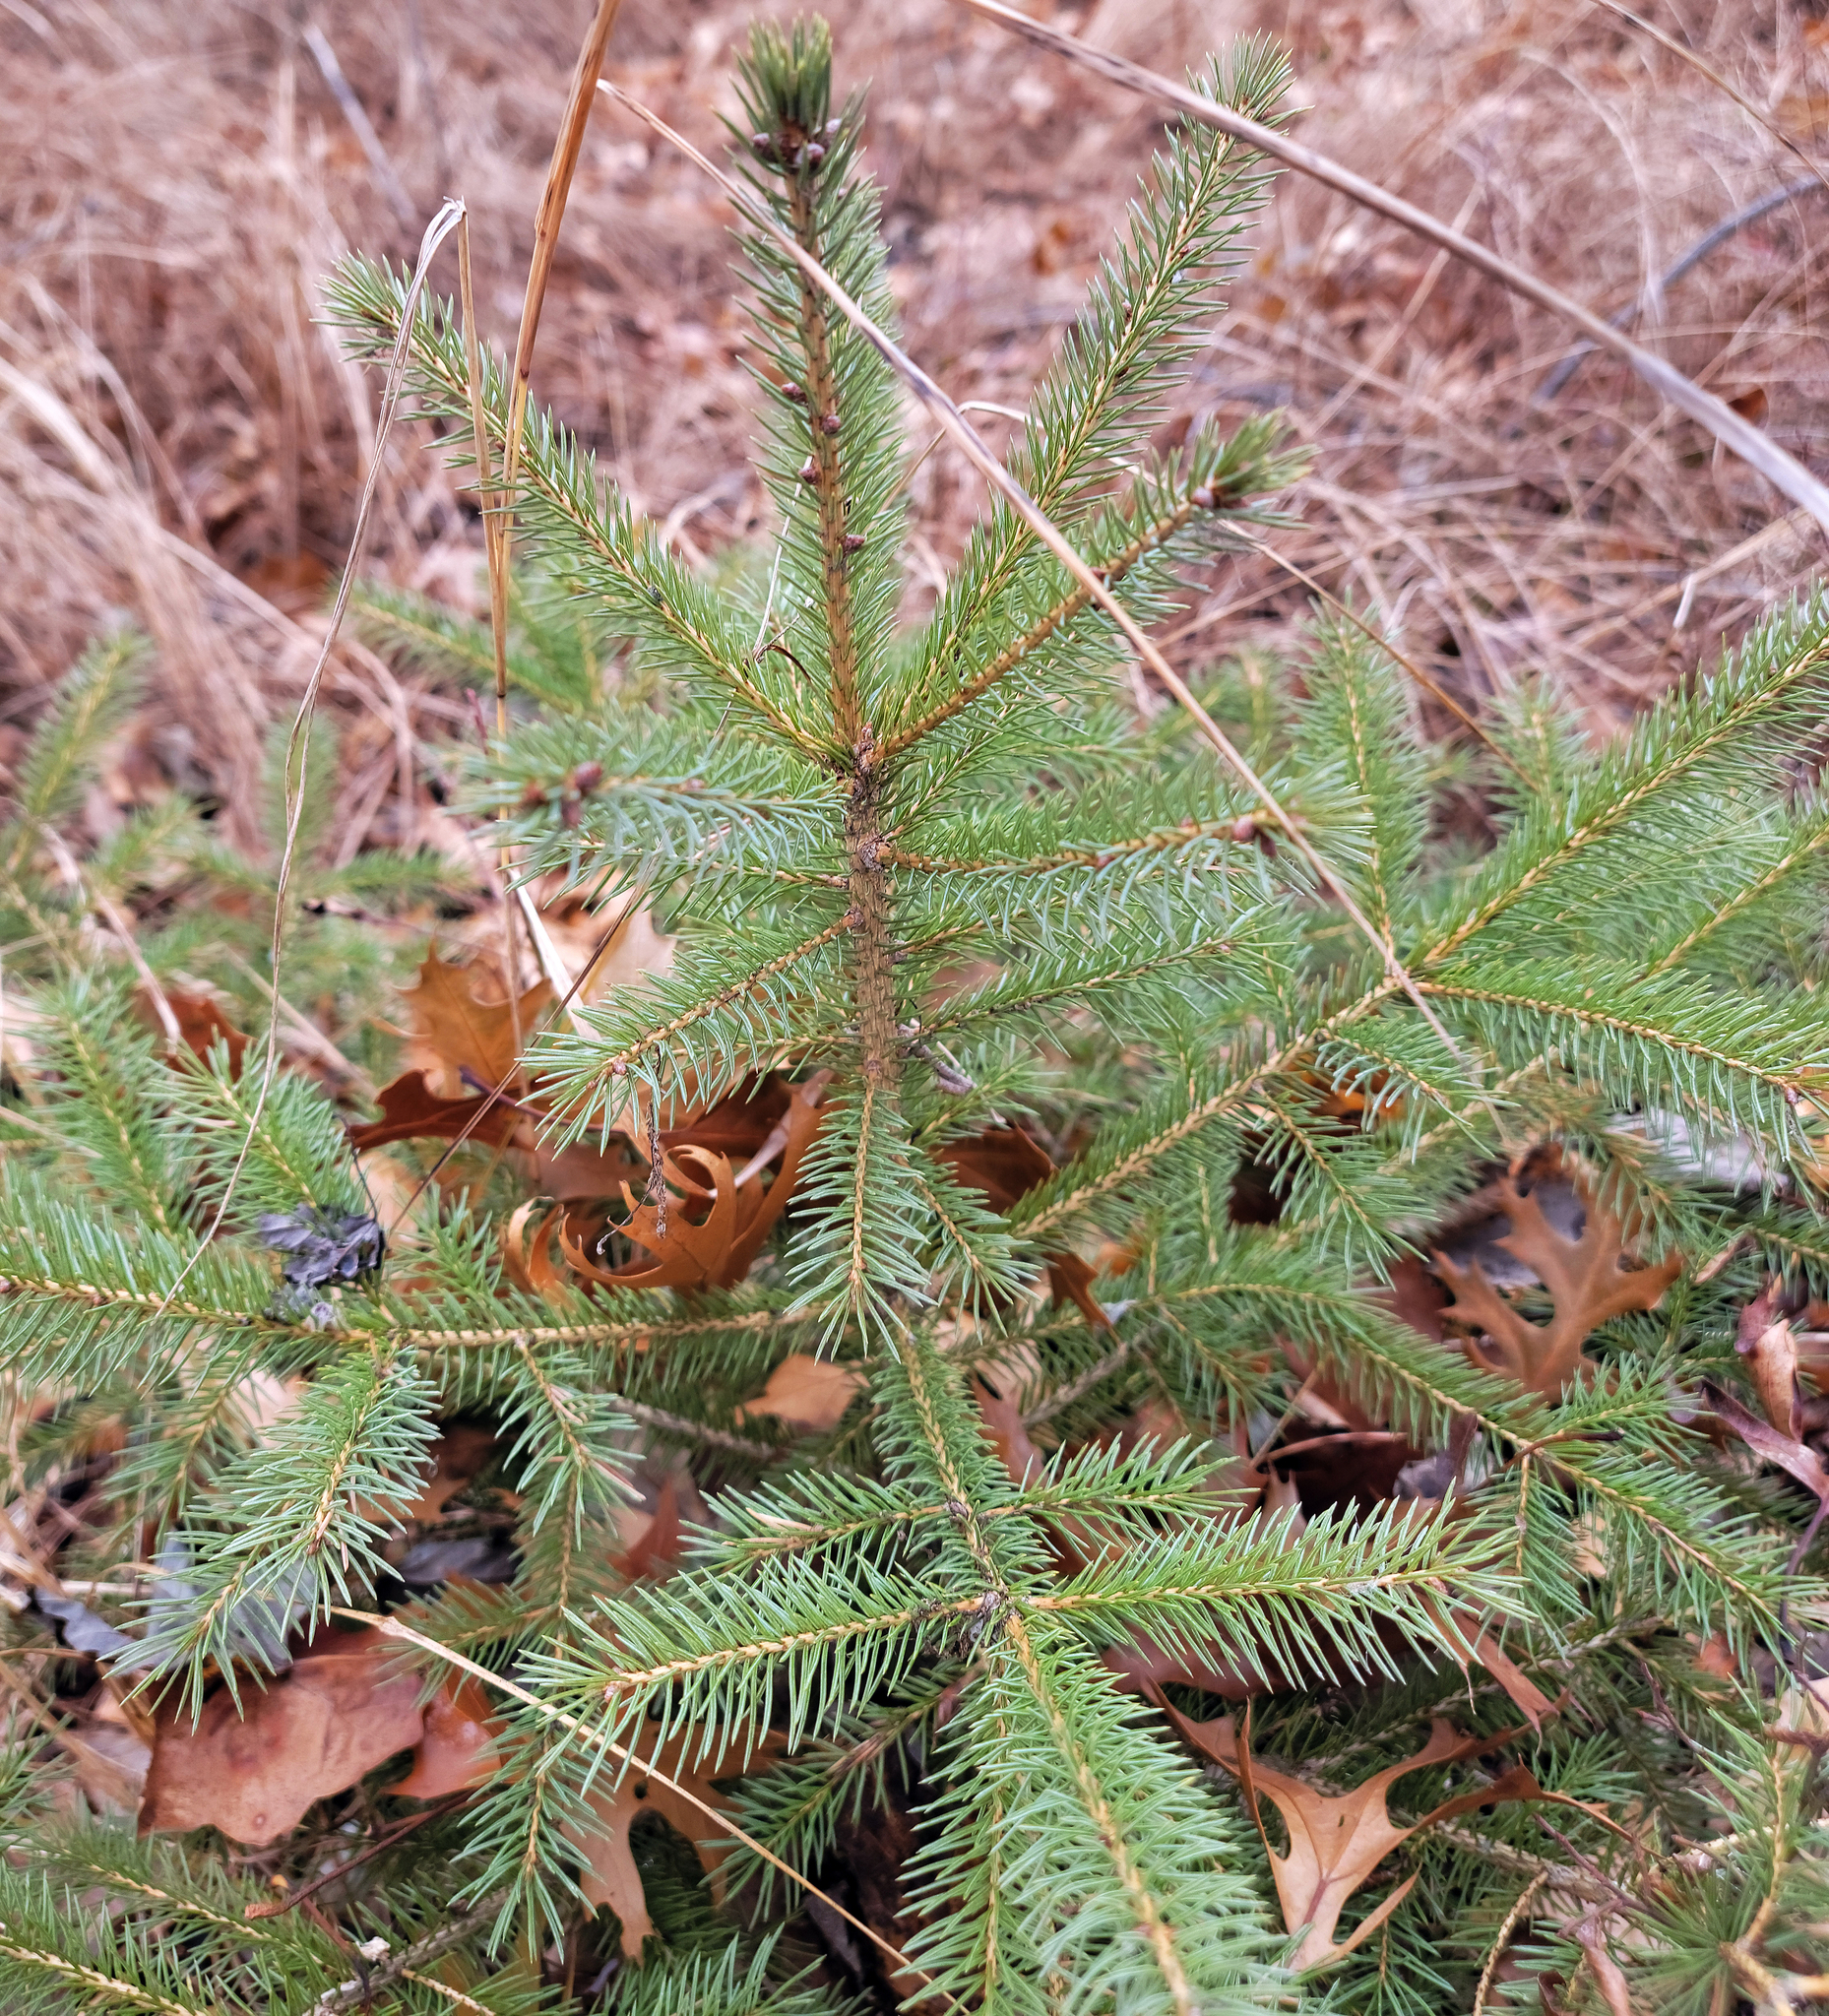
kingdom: Plantae
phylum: Tracheophyta
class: Pinopsida
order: Pinales
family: Pinaceae
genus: Picea
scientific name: Picea glauca
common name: White spruce
